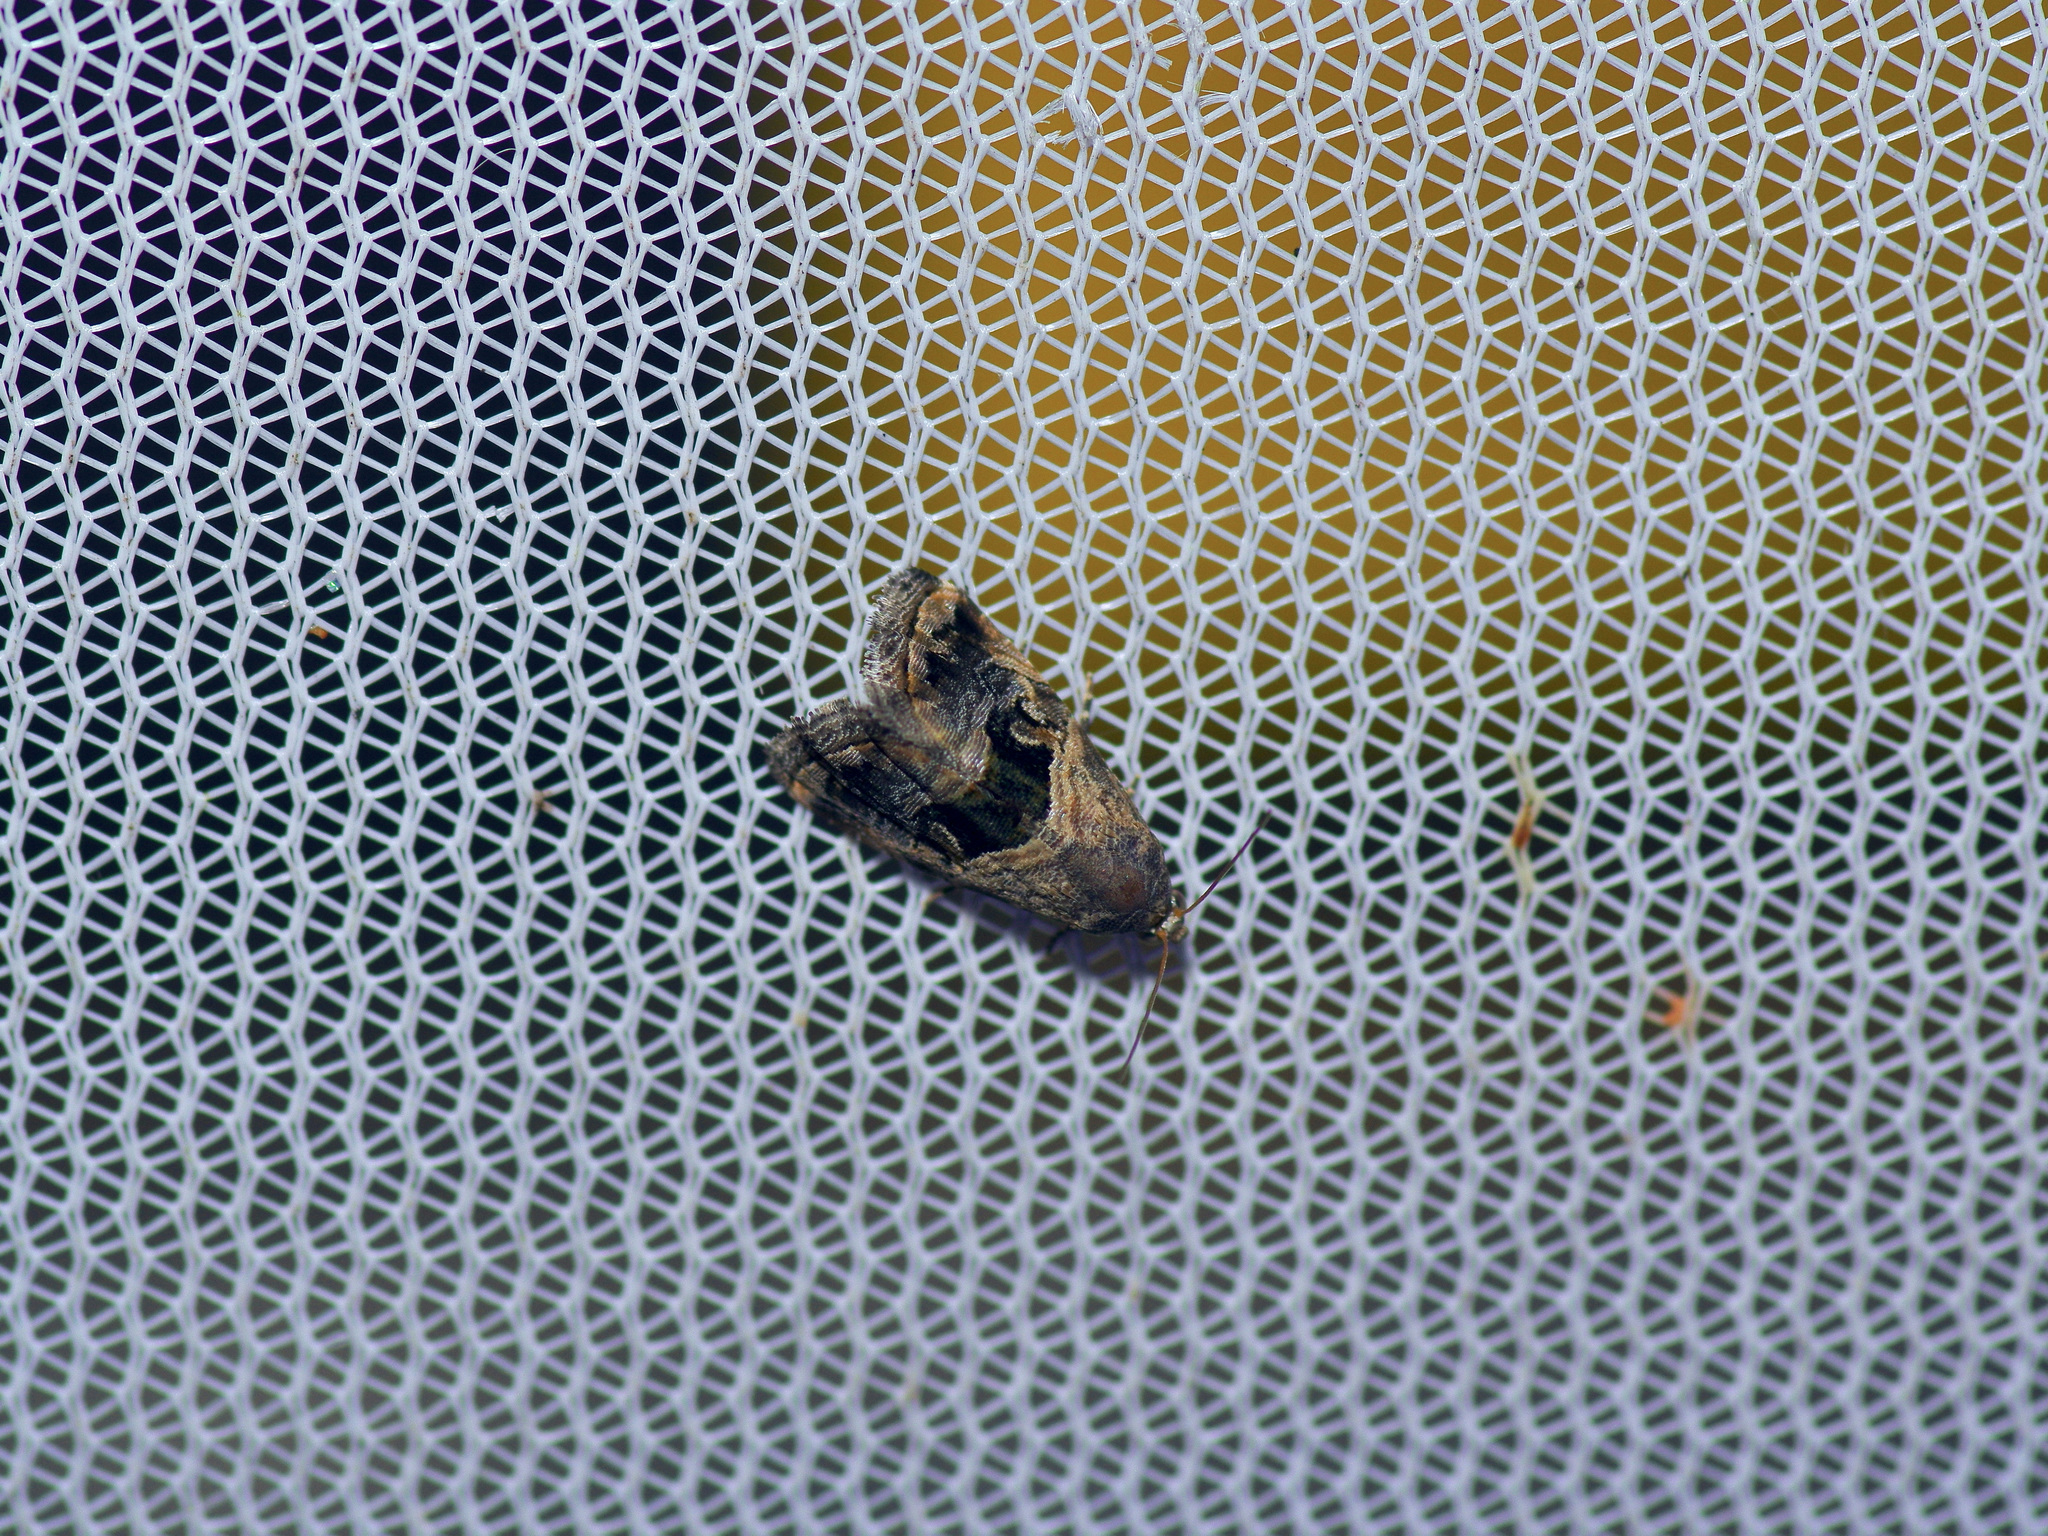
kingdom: Animalia
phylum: Arthropoda
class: Insecta
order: Lepidoptera
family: Noctuidae
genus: Tripudia
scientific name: Tripudia quadrifera
